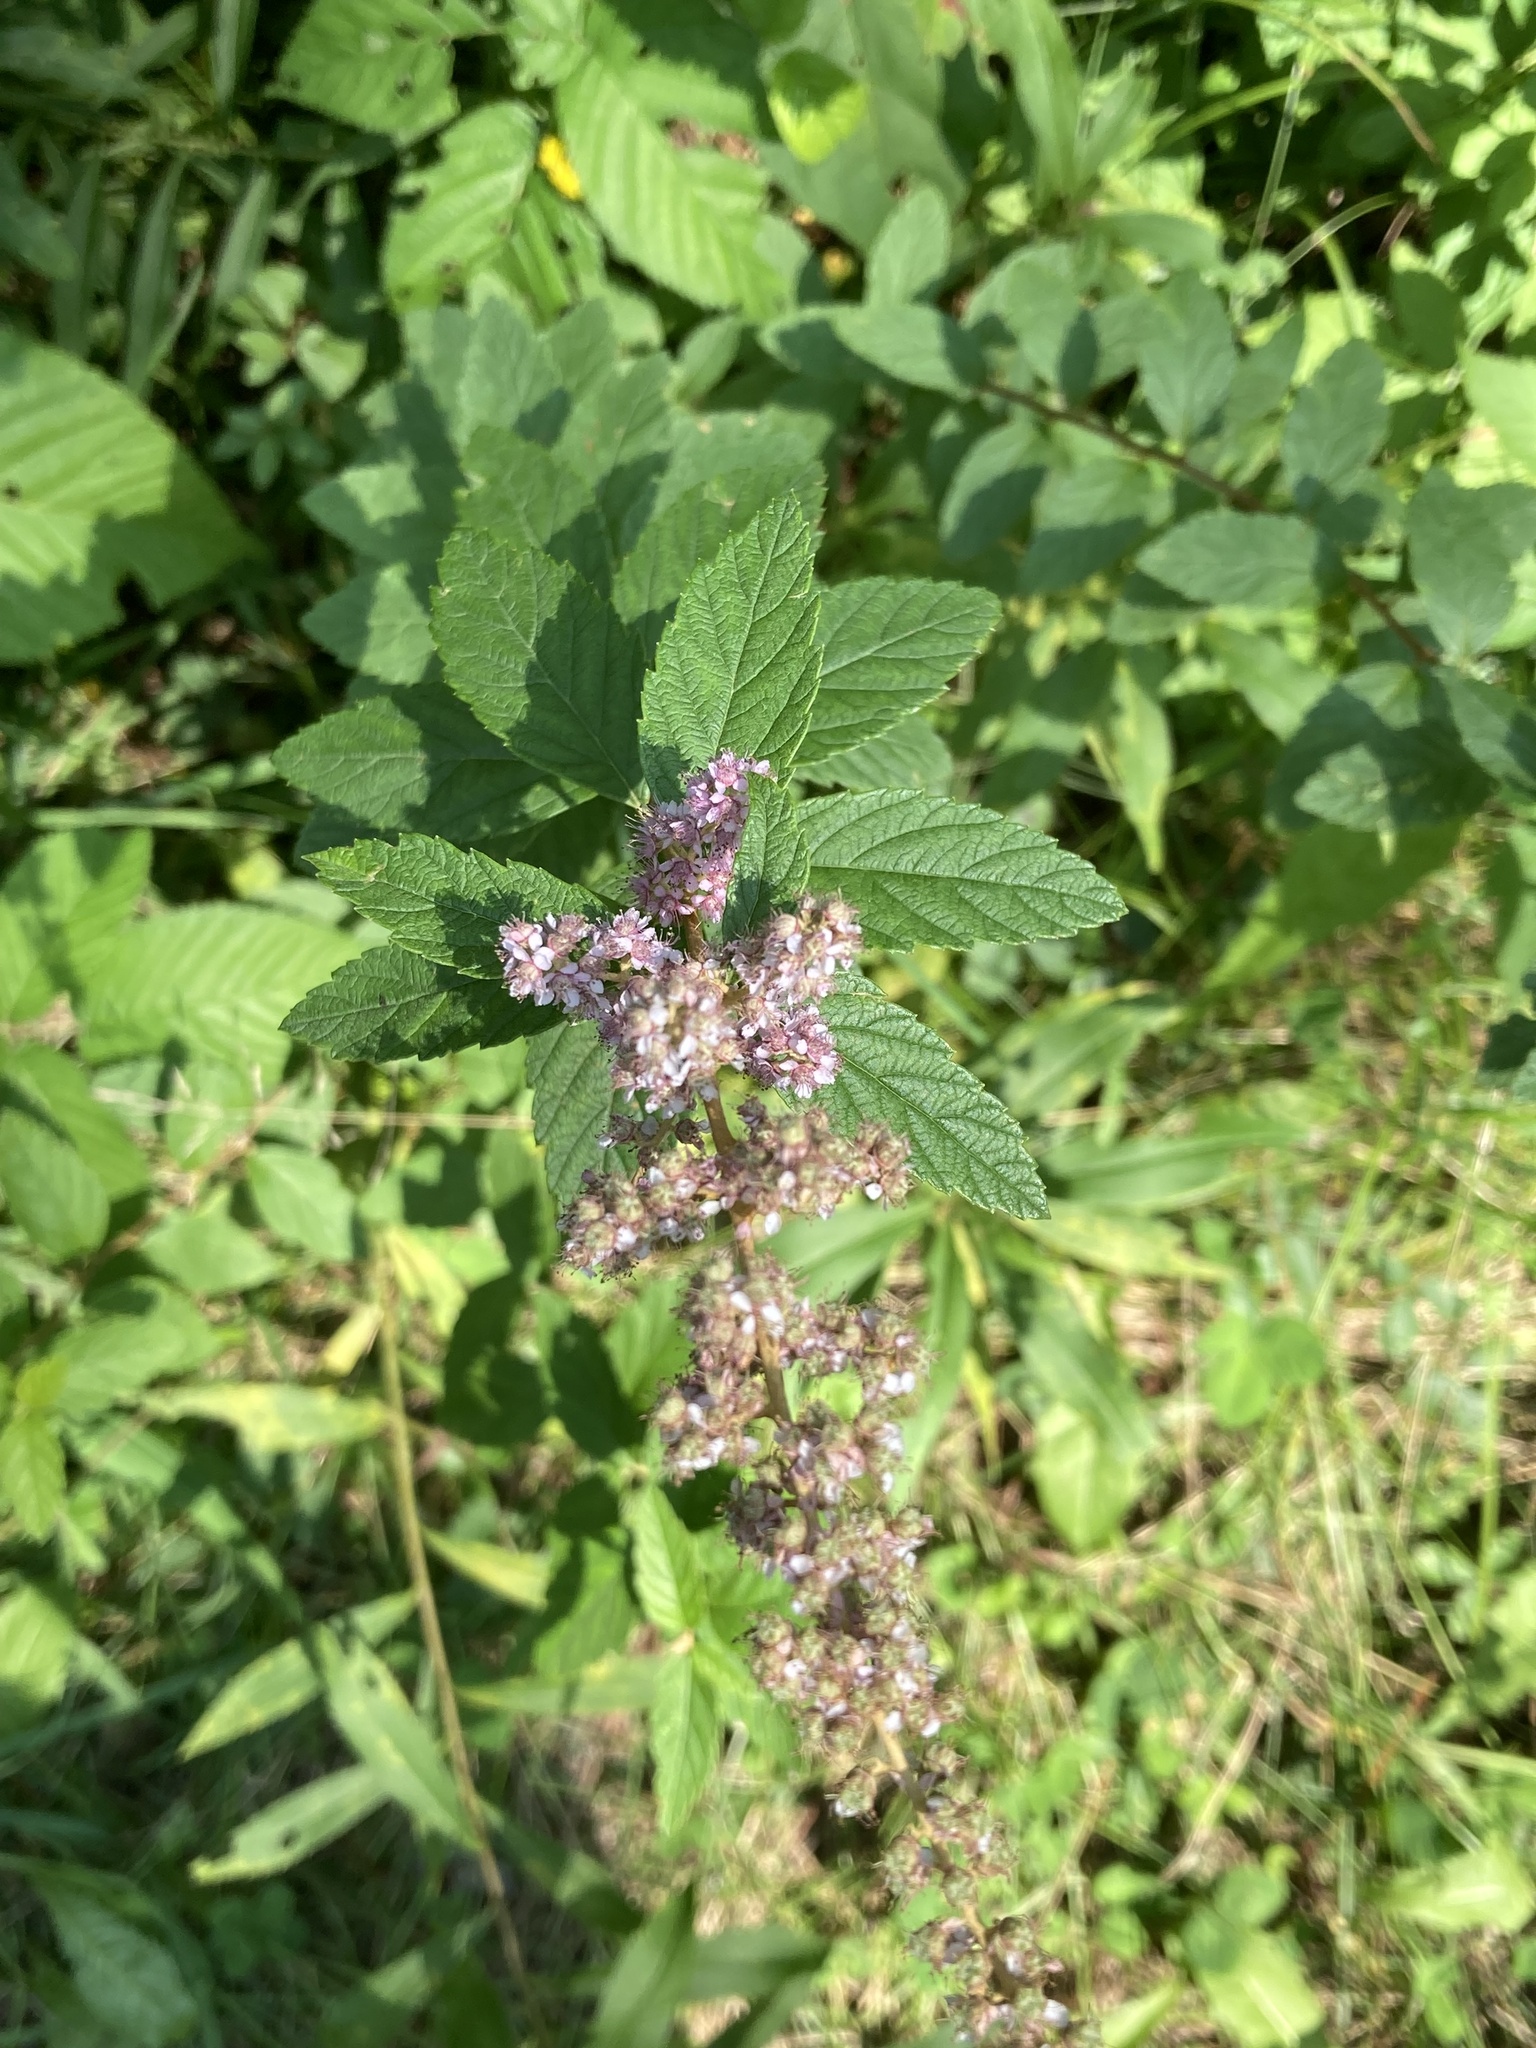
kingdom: Plantae
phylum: Tracheophyta
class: Magnoliopsida
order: Rosales
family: Rosaceae
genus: Spiraea
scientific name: Spiraea tomentosa
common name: Hardhack
